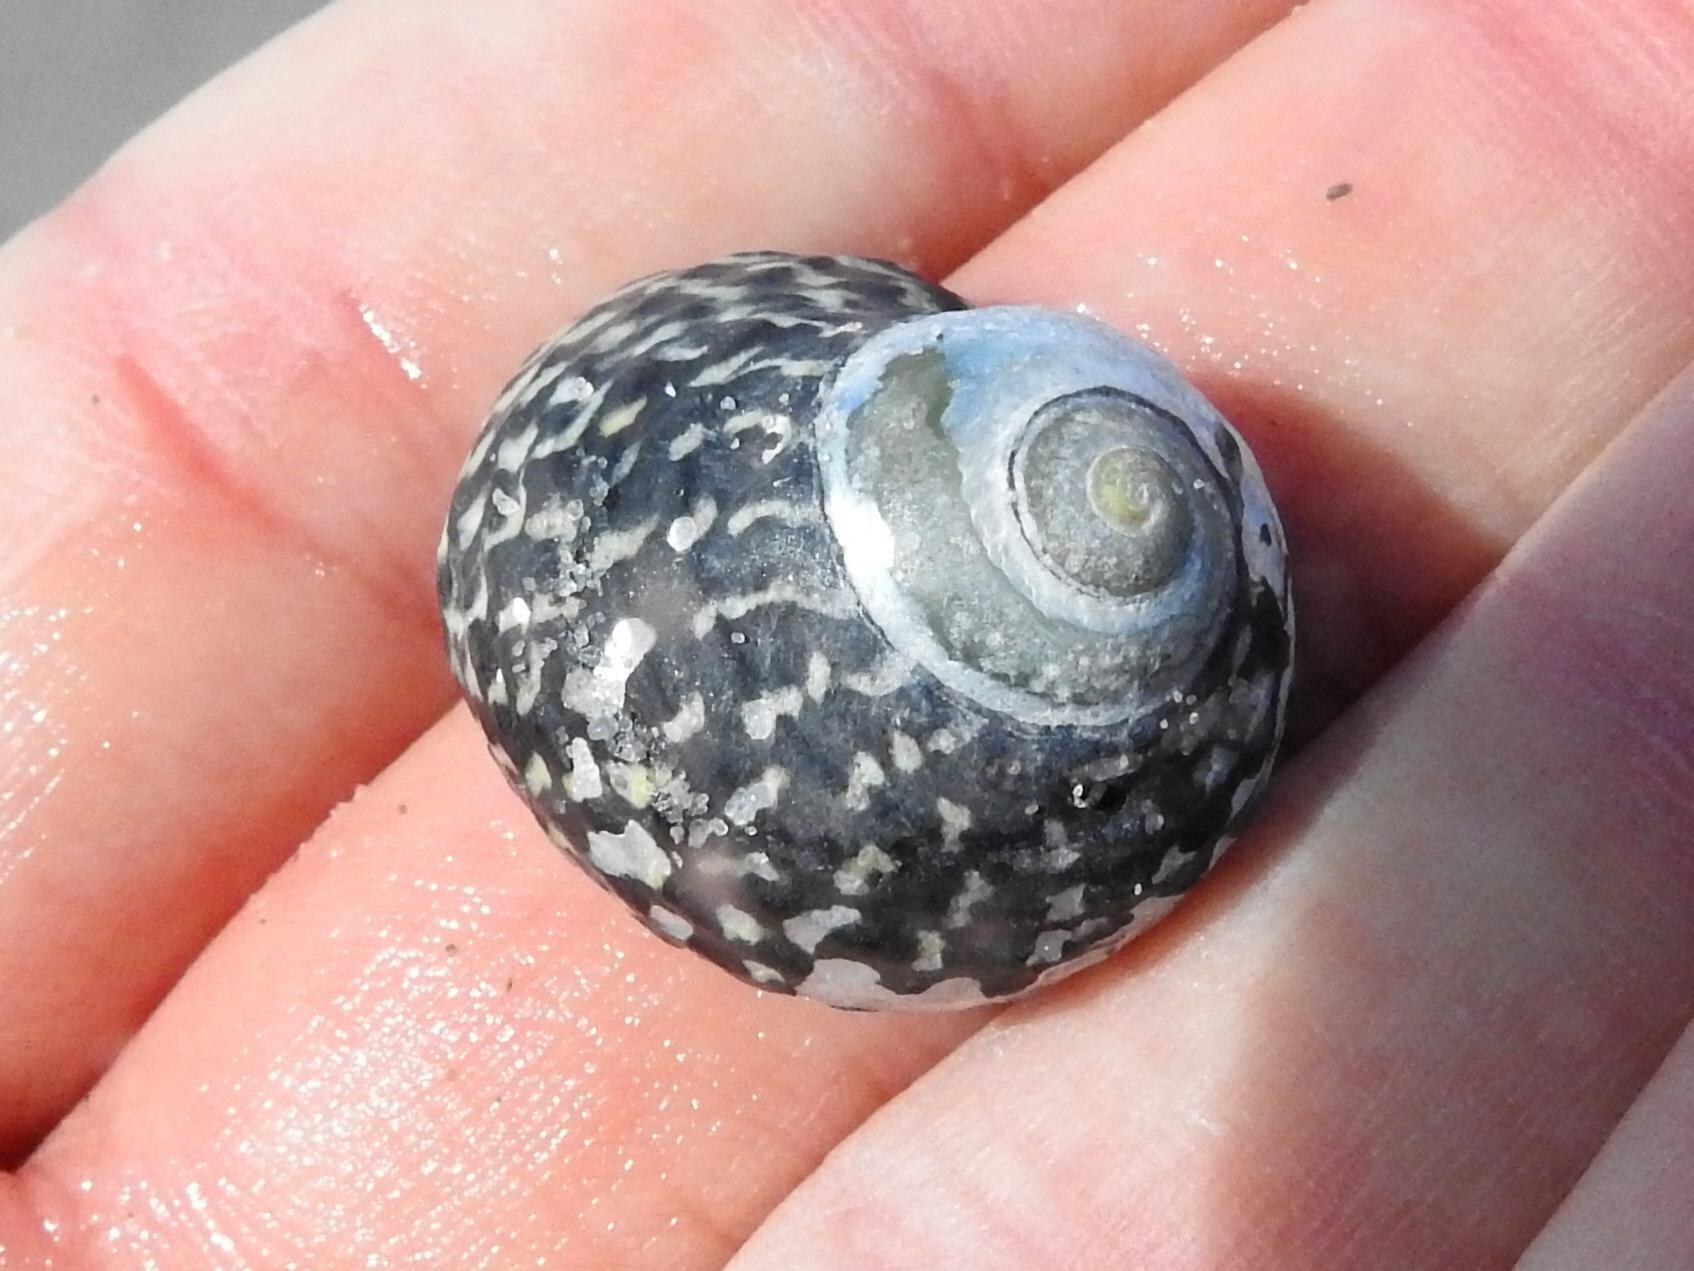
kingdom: Animalia
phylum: Mollusca
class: Gastropoda
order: Trochida
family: Trochidae
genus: Diloma
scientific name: Diloma concameratum
